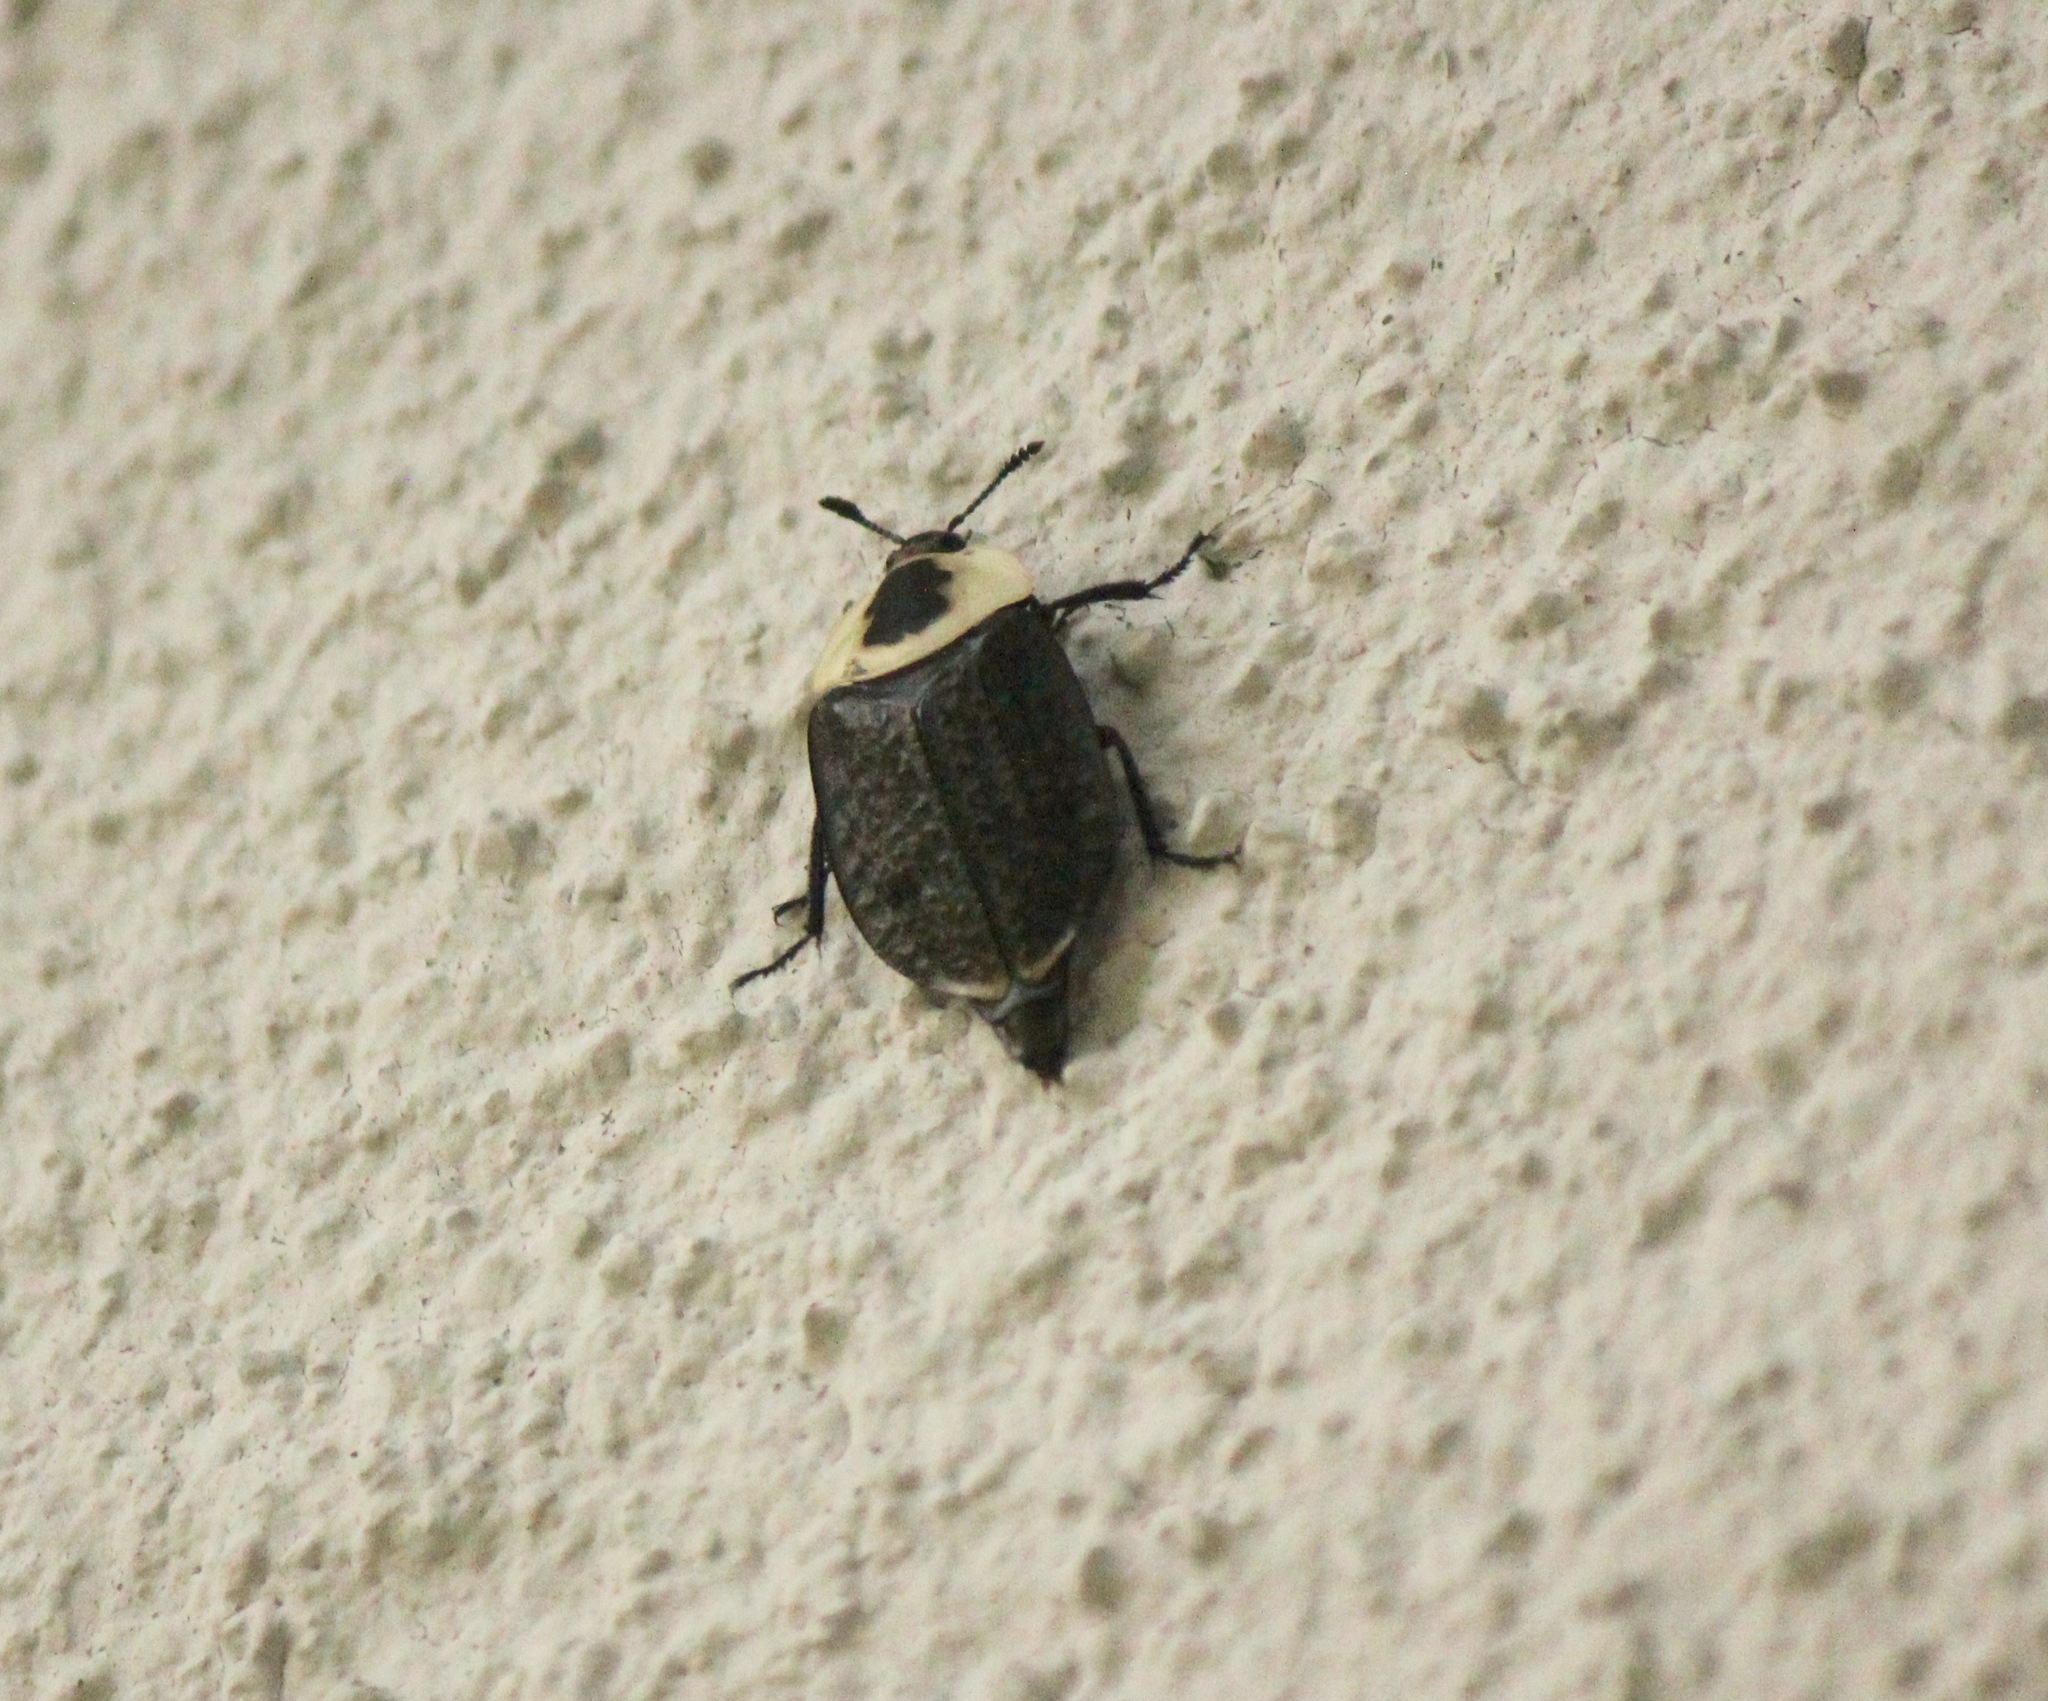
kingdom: Animalia
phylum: Arthropoda
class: Insecta
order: Coleoptera
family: Staphylinidae
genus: Necrophila
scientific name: Necrophila americana
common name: American carrion beetle
